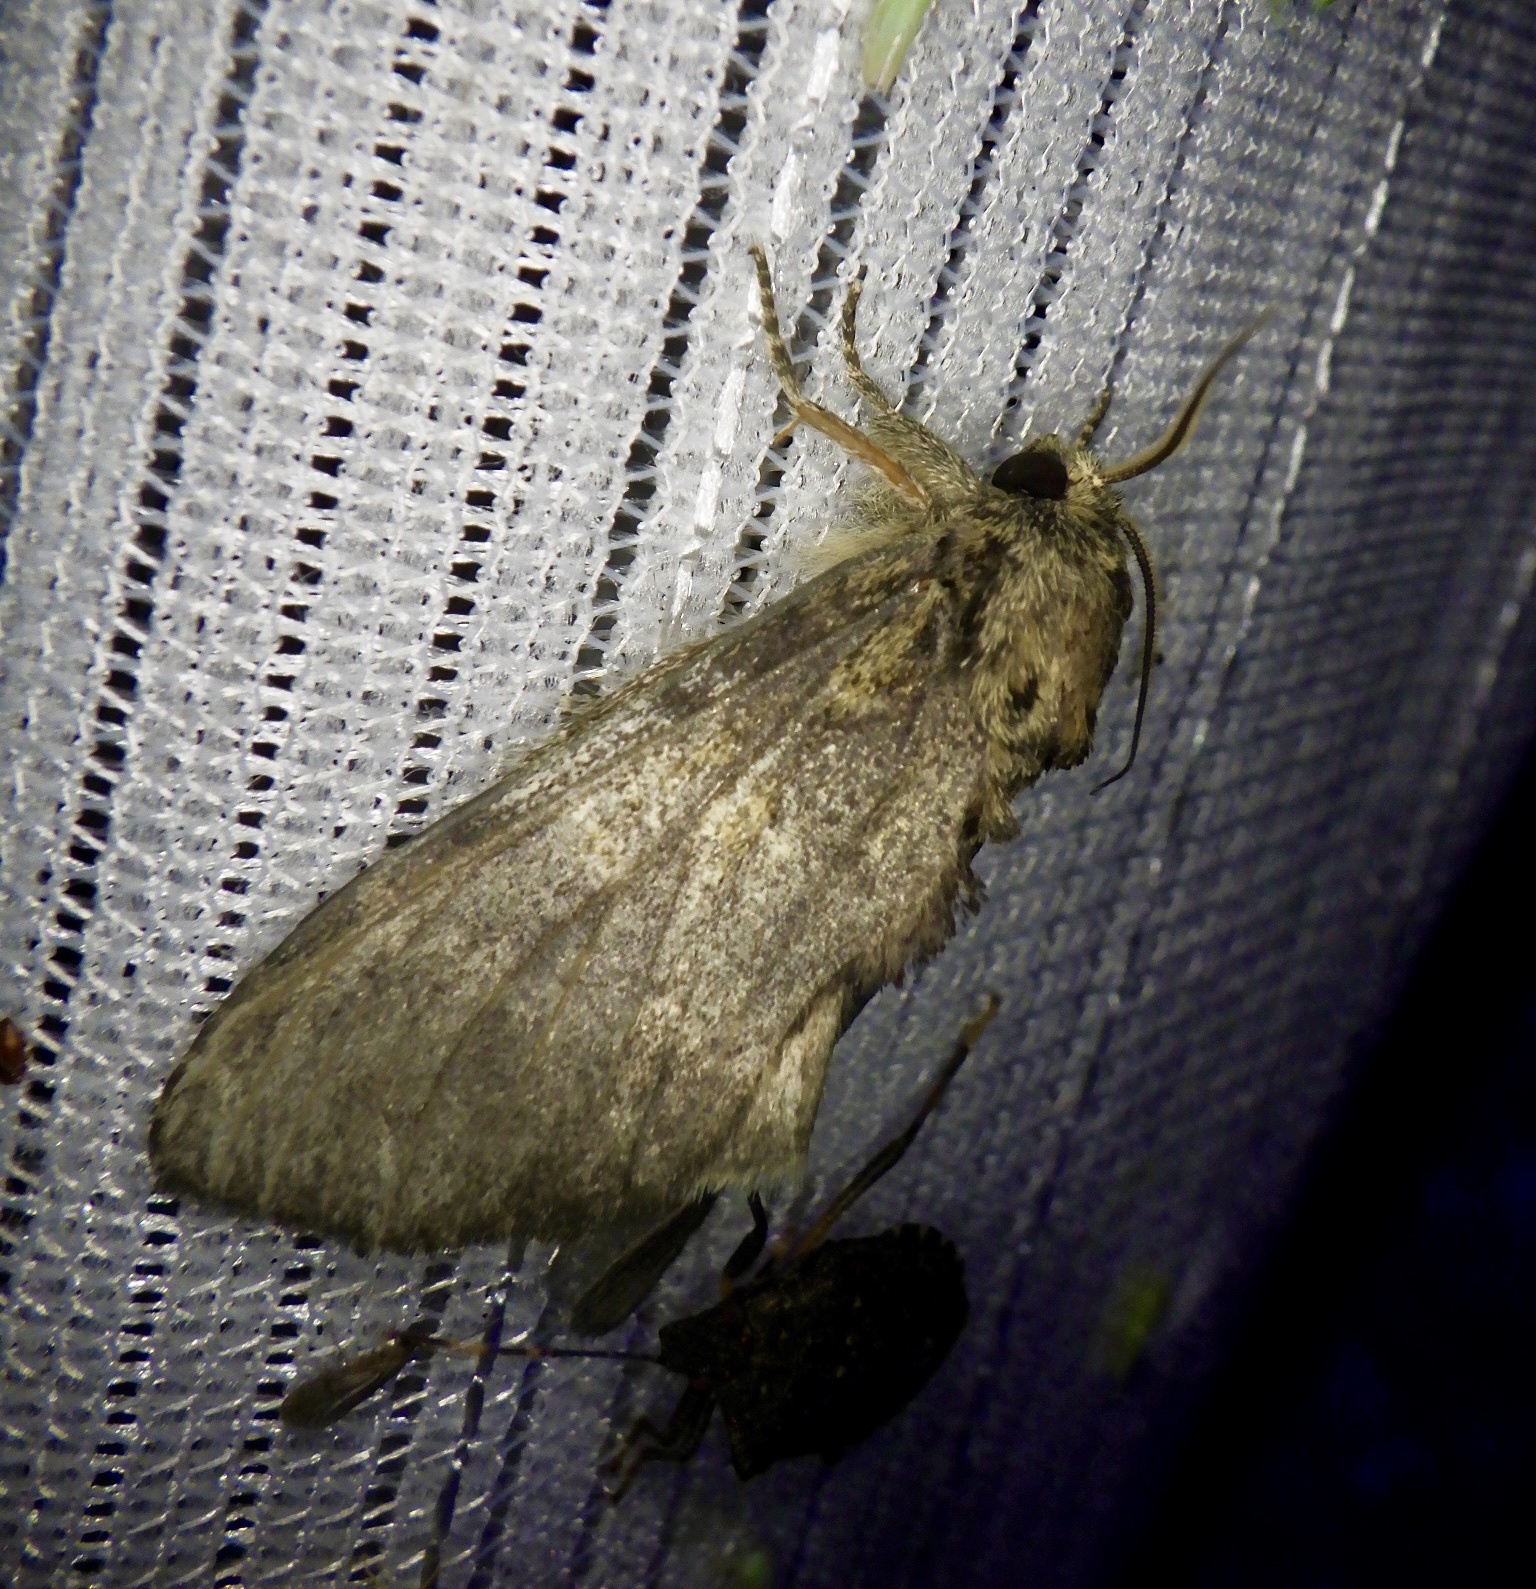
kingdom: Animalia
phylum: Arthropoda
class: Insecta
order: Lepidoptera
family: Notodontidae
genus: Peridea
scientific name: Peridea gigantea
